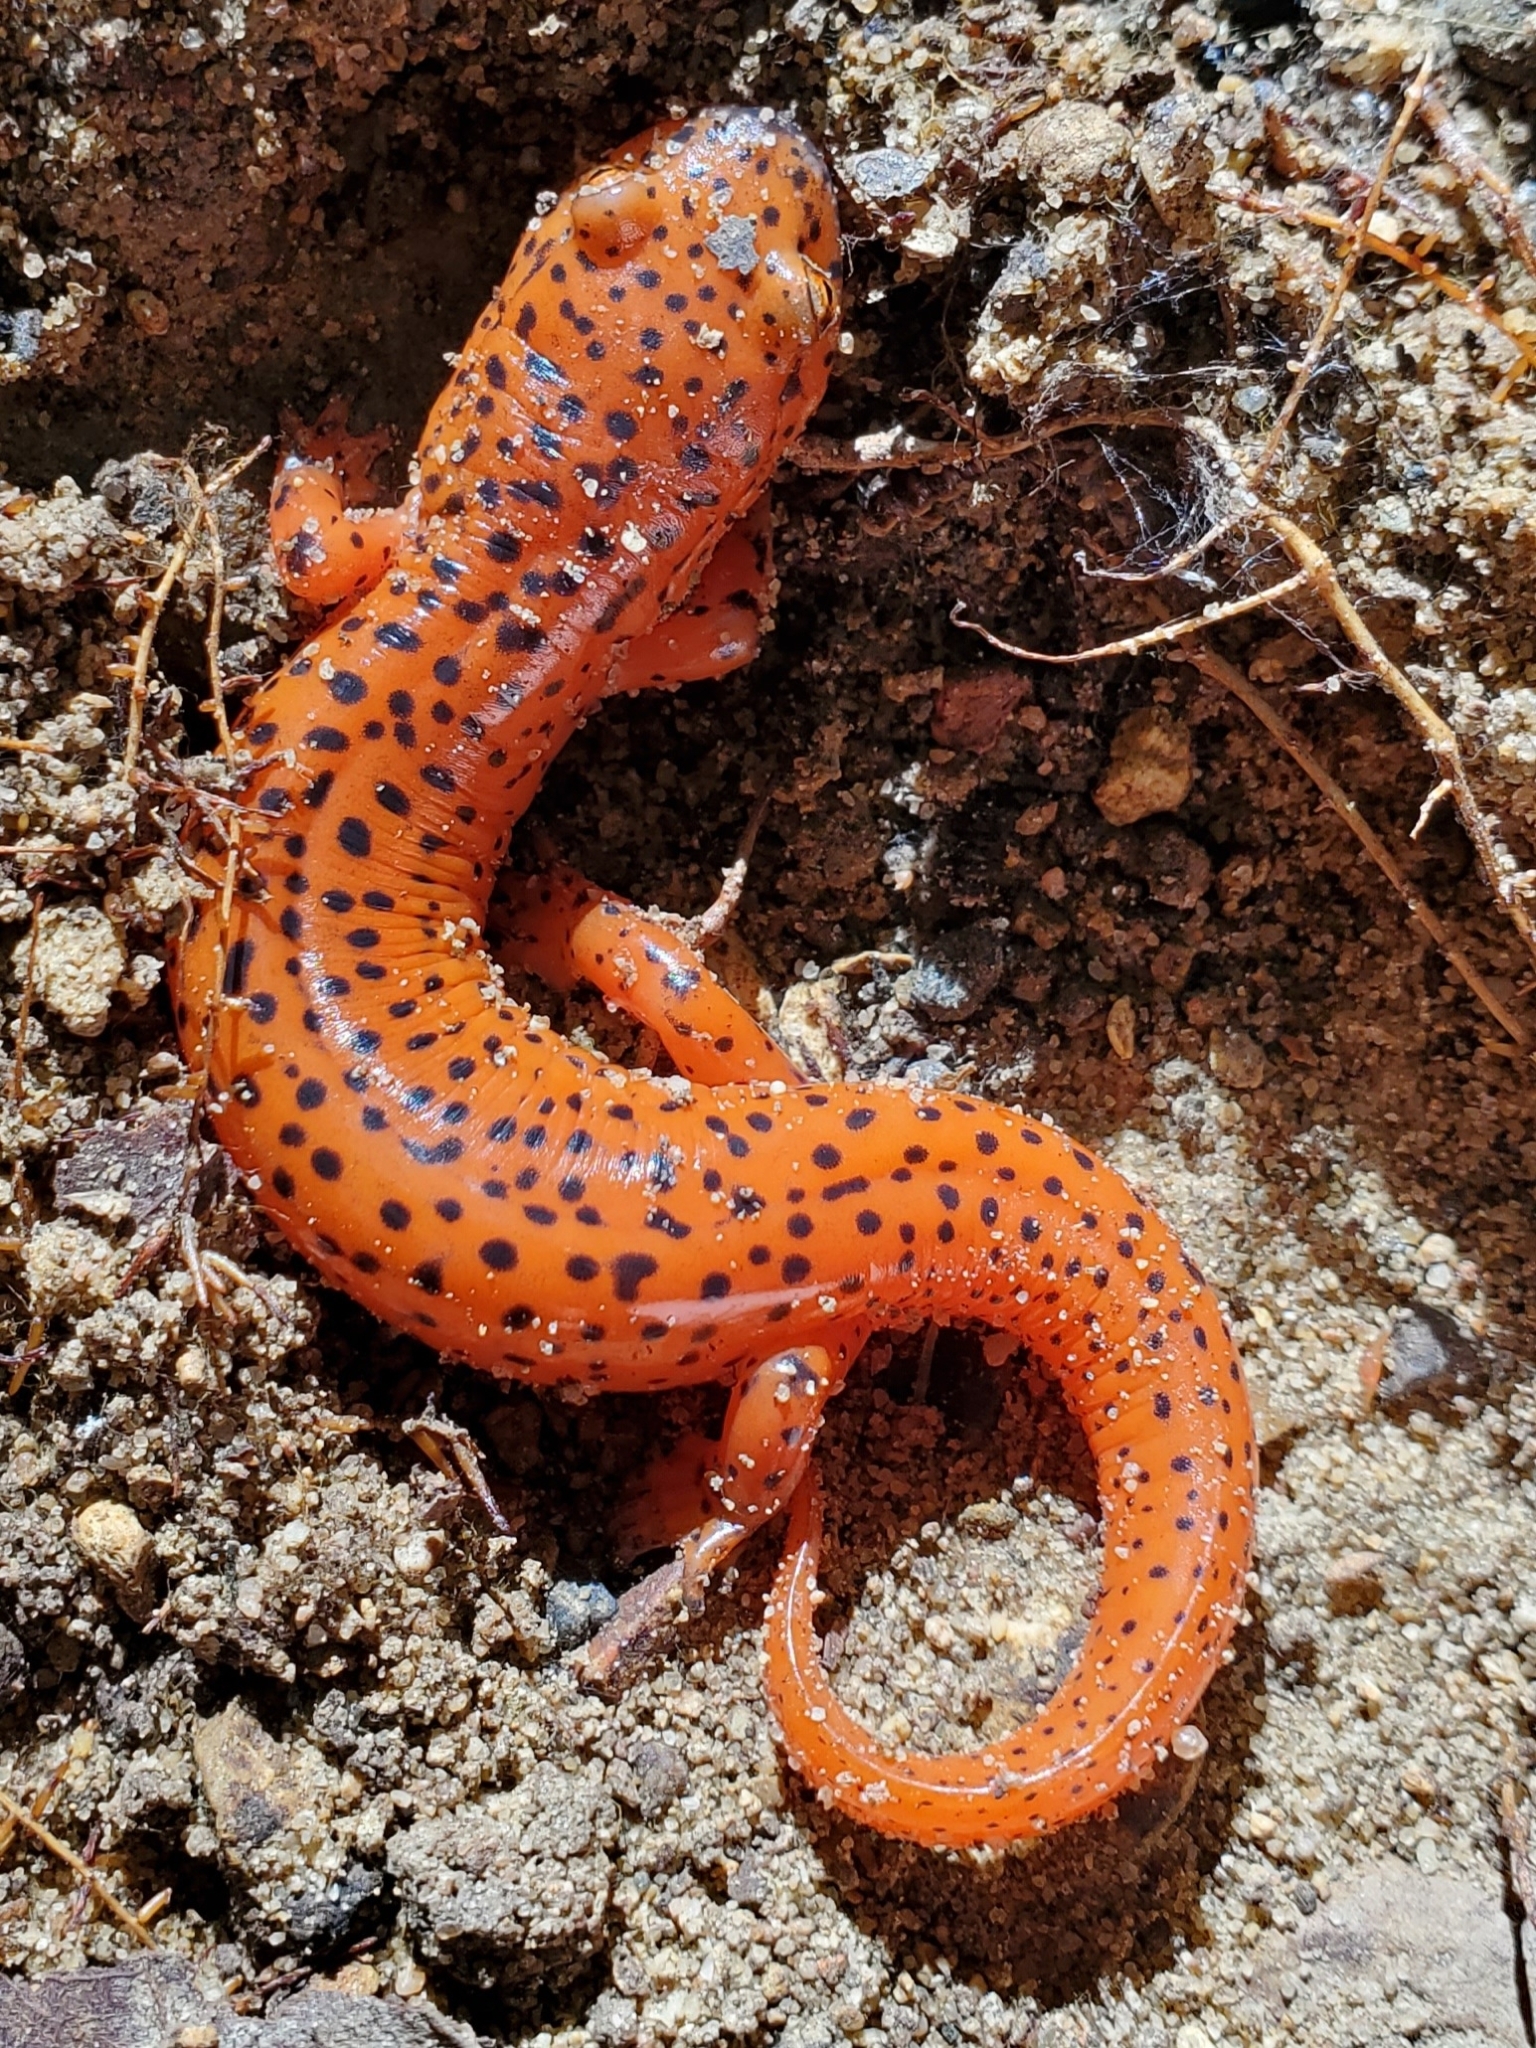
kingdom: Animalia
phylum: Chordata
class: Amphibia
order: Caudata
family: Plethodontidae
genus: Pseudotriton
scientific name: Pseudotriton ruber
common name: Red salamander
